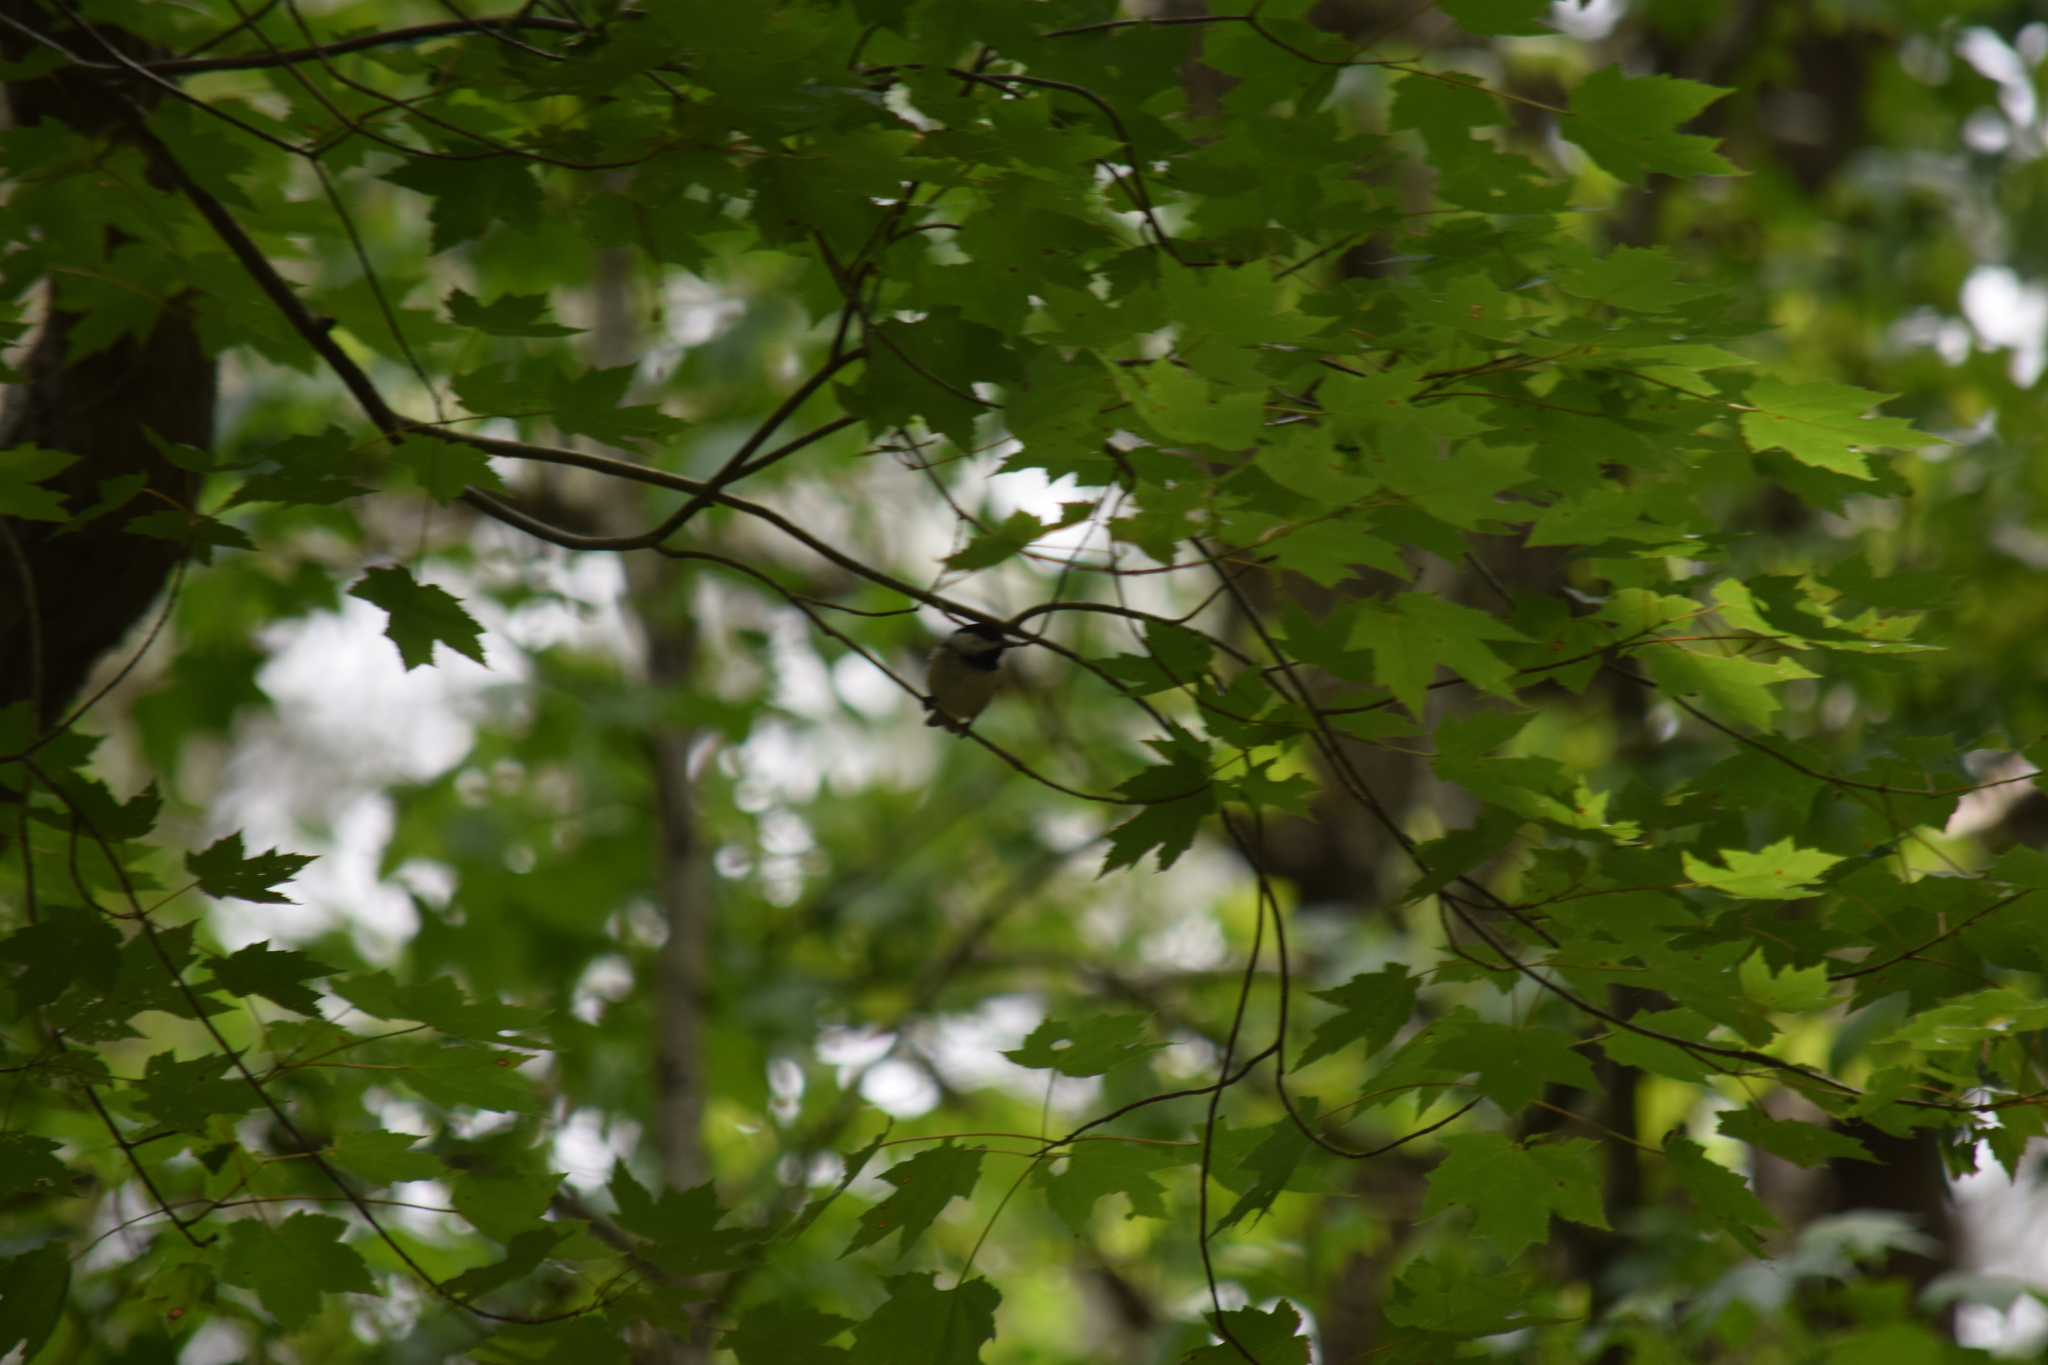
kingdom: Animalia
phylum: Chordata
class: Aves
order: Passeriformes
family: Paridae
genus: Poecile
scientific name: Poecile carolinensis
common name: Carolina chickadee
